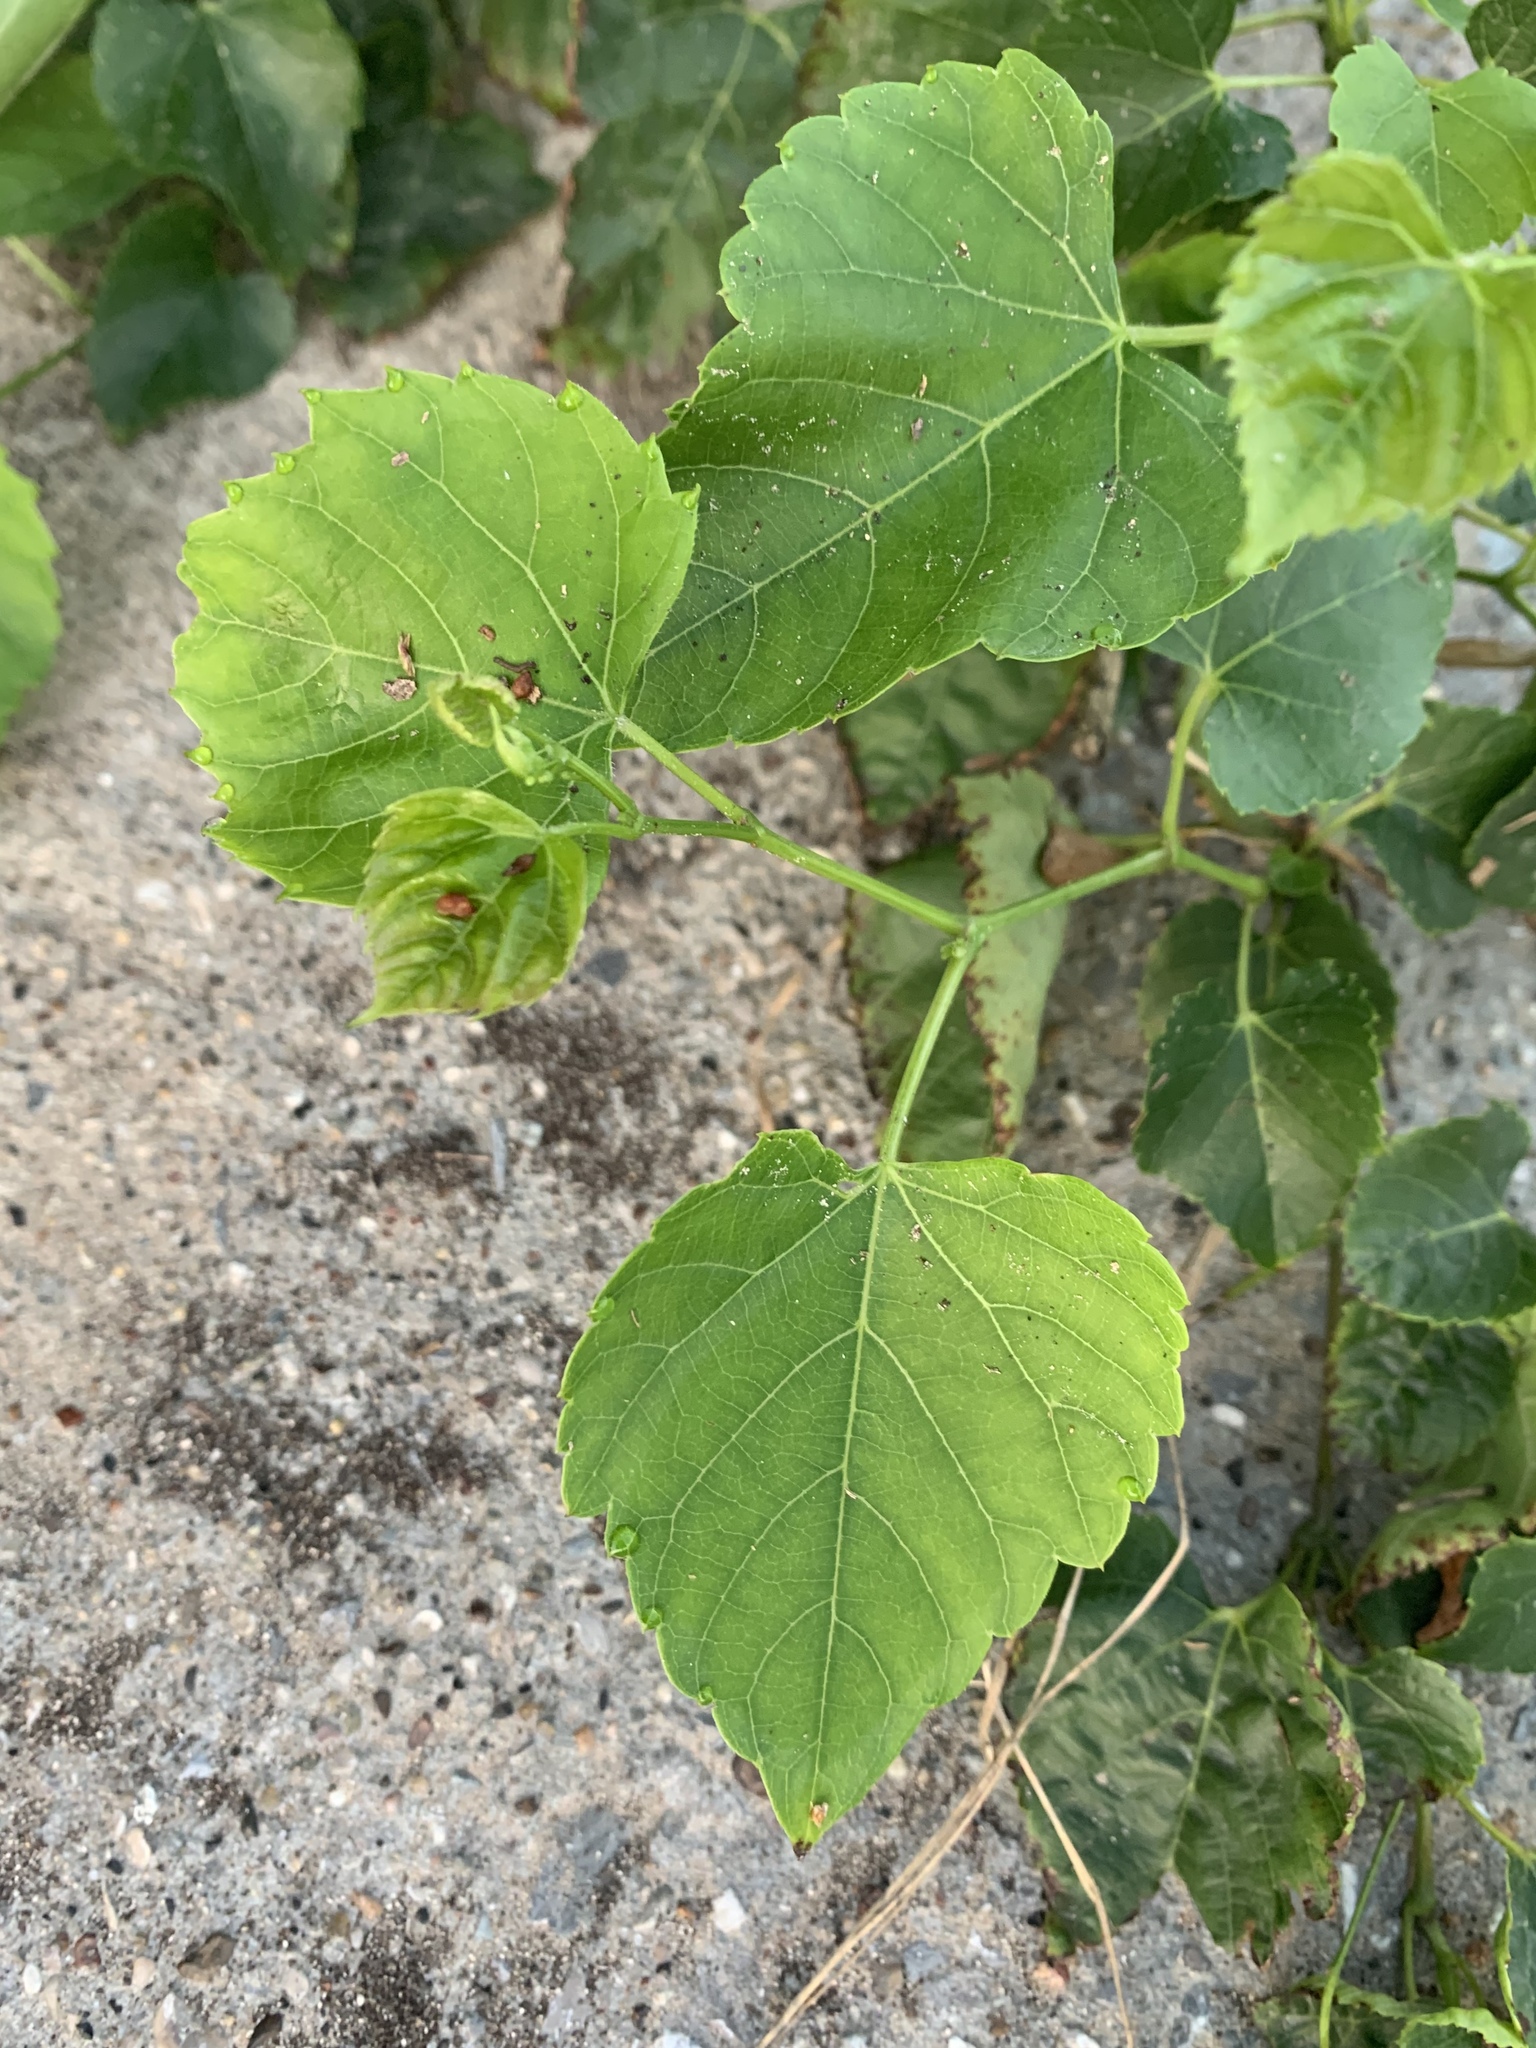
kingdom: Plantae
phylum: Tracheophyta
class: Magnoliopsida
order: Vitales
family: Vitaceae
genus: Ampelopsis
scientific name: Ampelopsis cordata
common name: Heart-leaf ampelopsis
